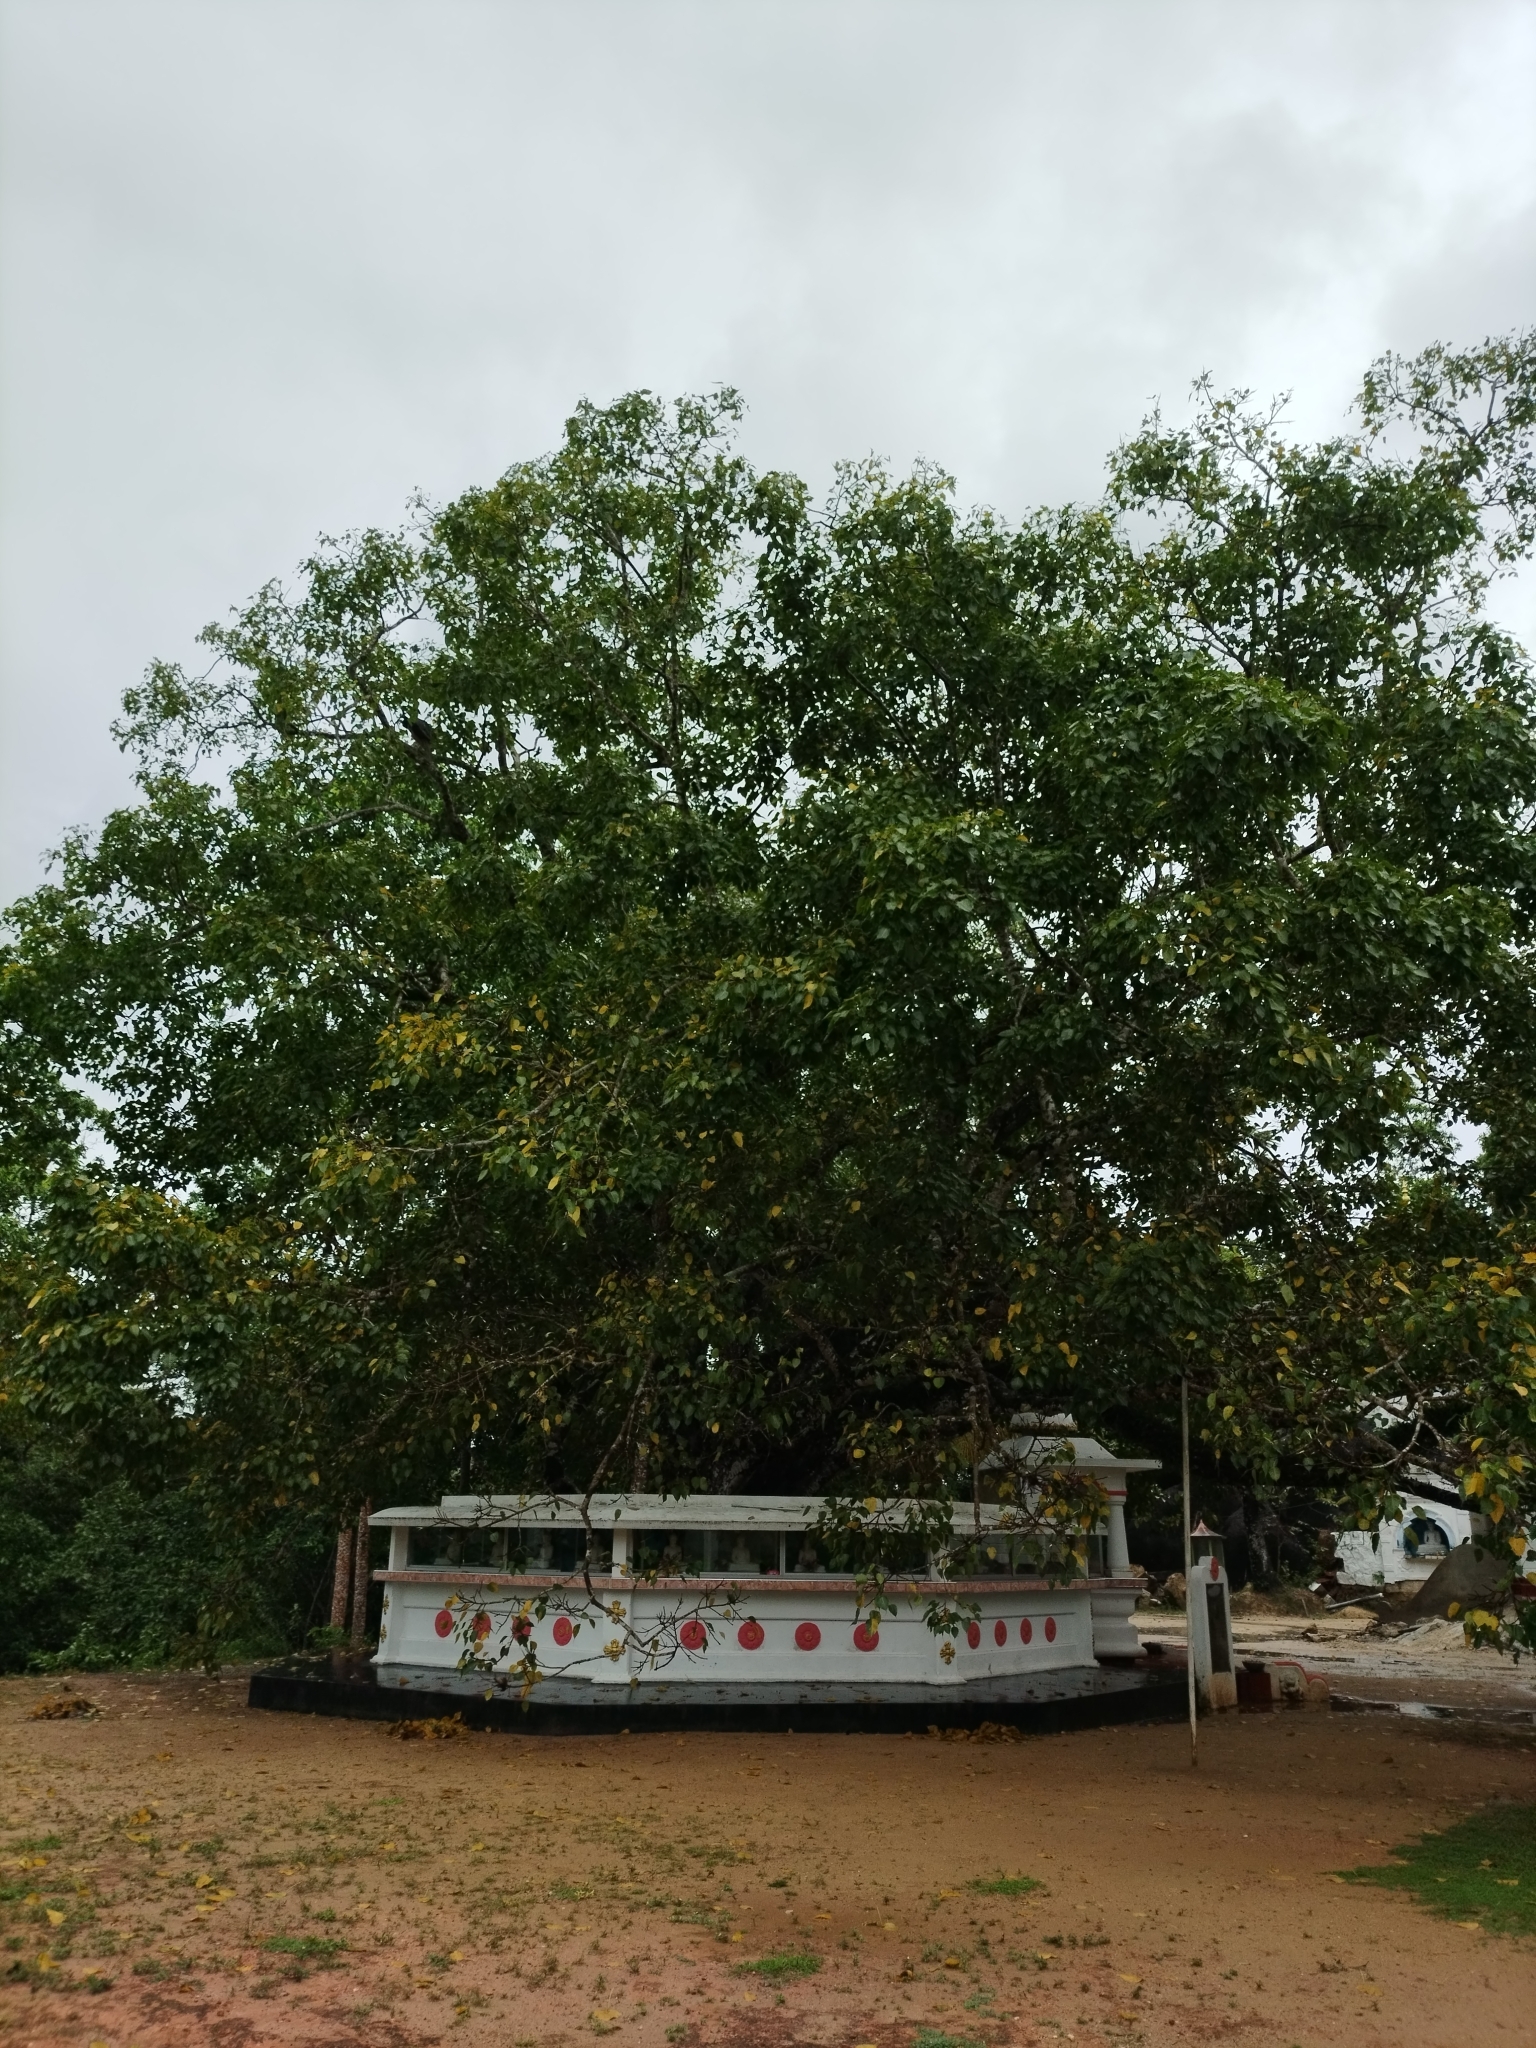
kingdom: Plantae
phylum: Tracheophyta
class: Magnoliopsida
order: Rosales
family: Moraceae
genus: Ficus
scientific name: Ficus religiosa
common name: Bodhi tree
